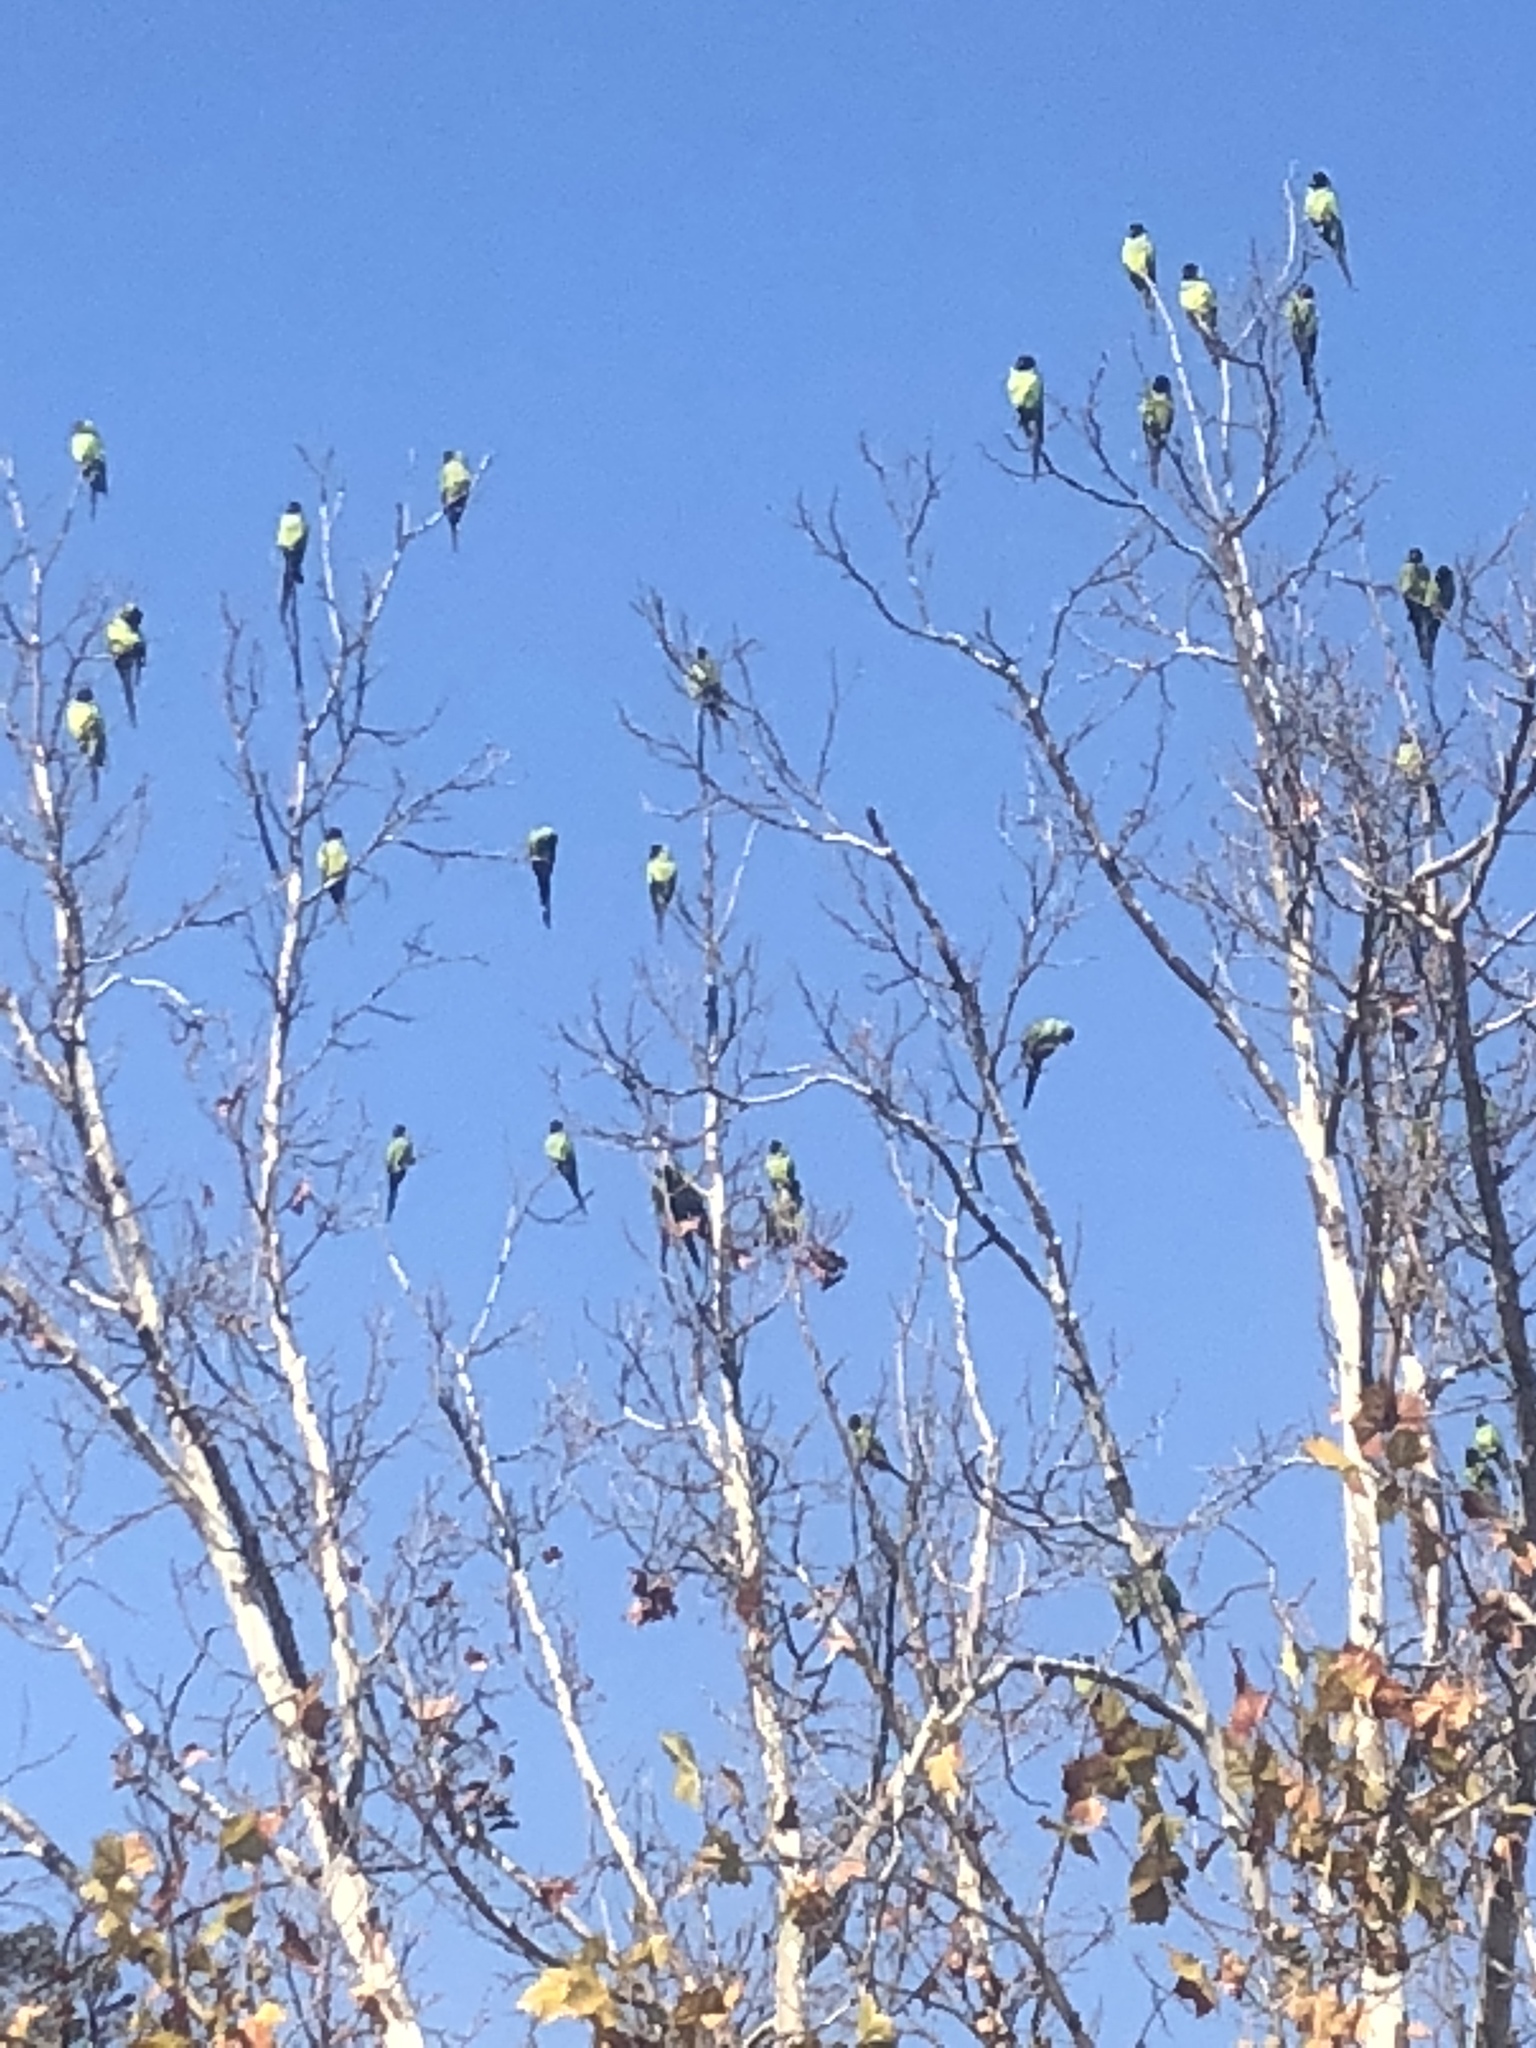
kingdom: Animalia
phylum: Chordata
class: Aves
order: Psittaciformes
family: Psittacidae
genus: Nandayus
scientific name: Nandayus nenday
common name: Nanday parakeet
